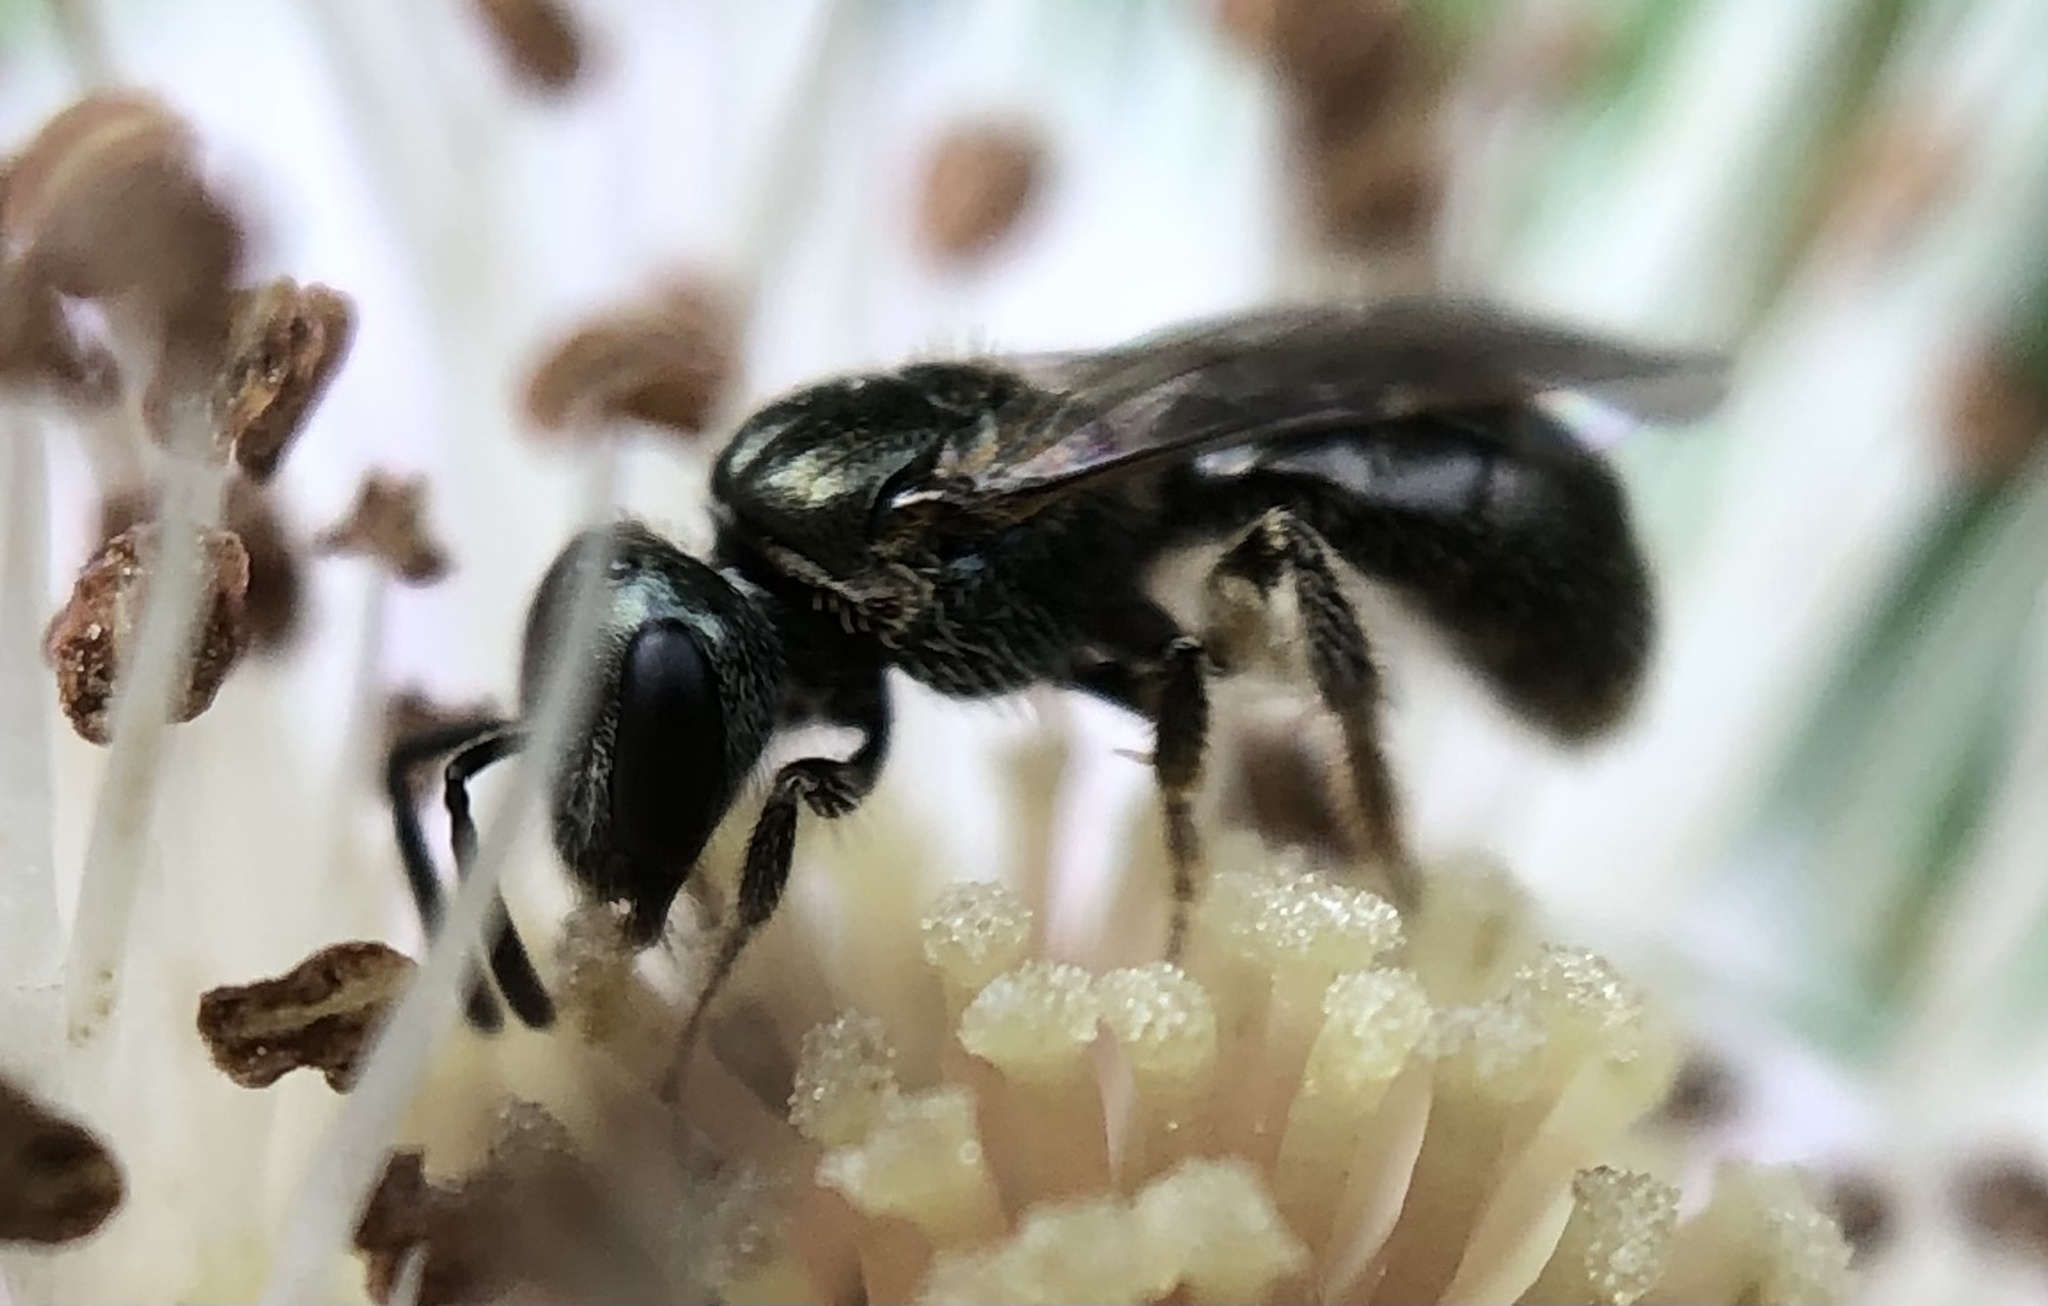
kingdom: Animalia
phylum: Arthropoda
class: Insecta
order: Hymenoptera
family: Halictidae
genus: Lasioglossum
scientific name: Lasioglossum imitatum
